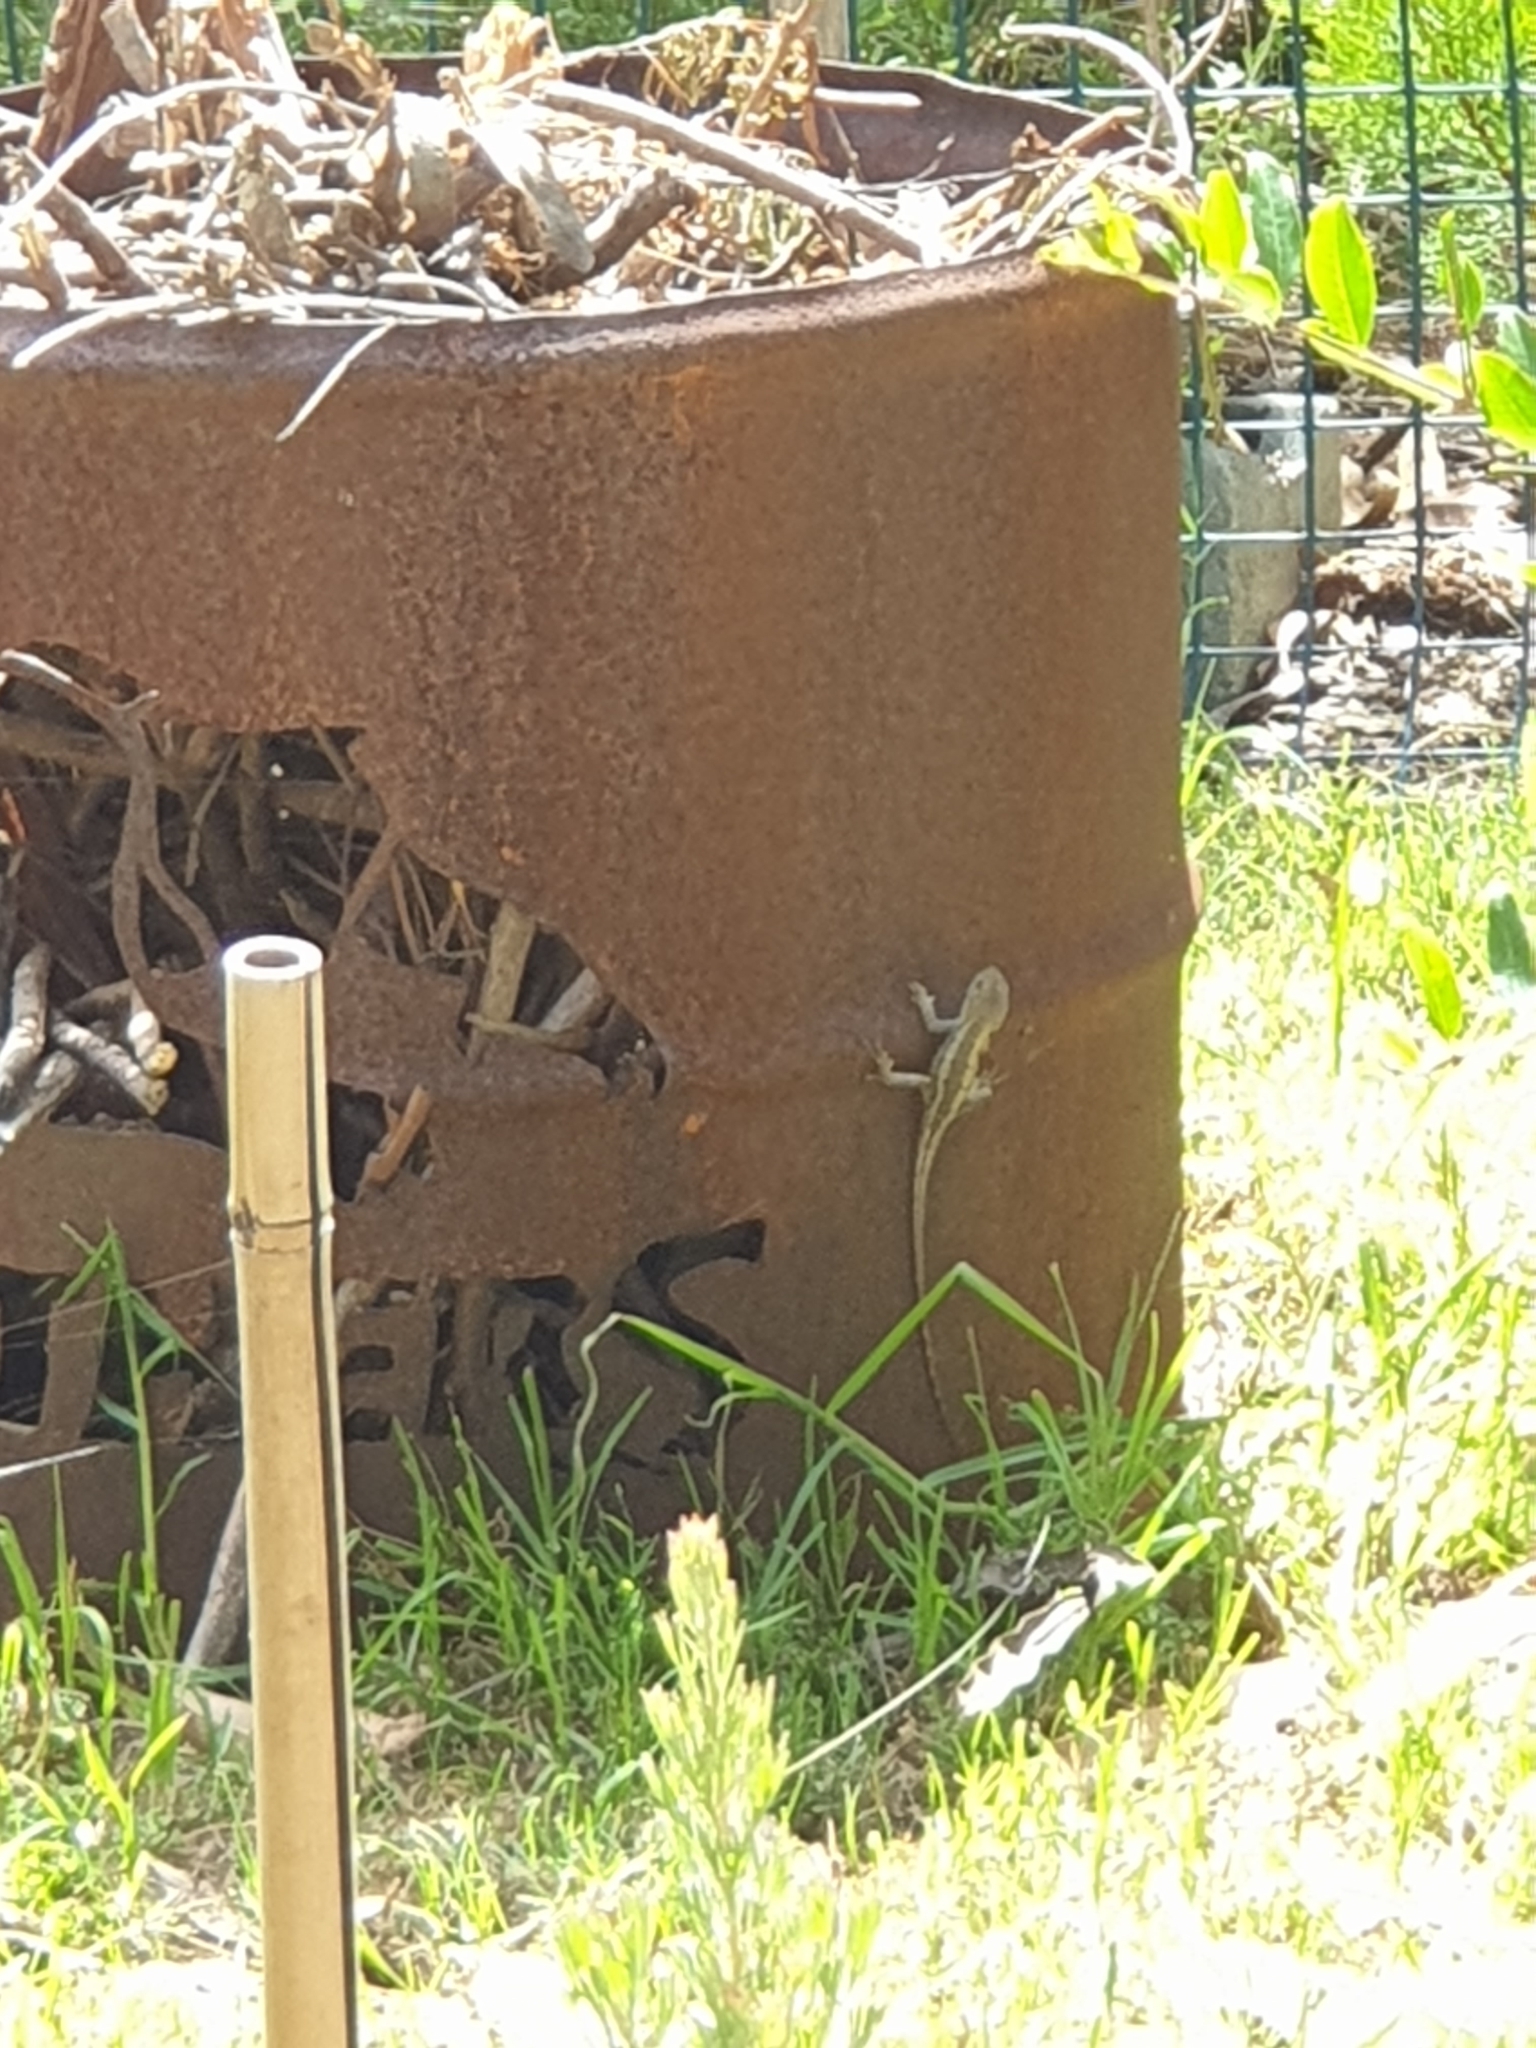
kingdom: Animalia
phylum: Chordata
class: Squamata
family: Agamidae
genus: Amphibolurus
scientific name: Amphibolurus muricatus
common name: Jacky lizard
